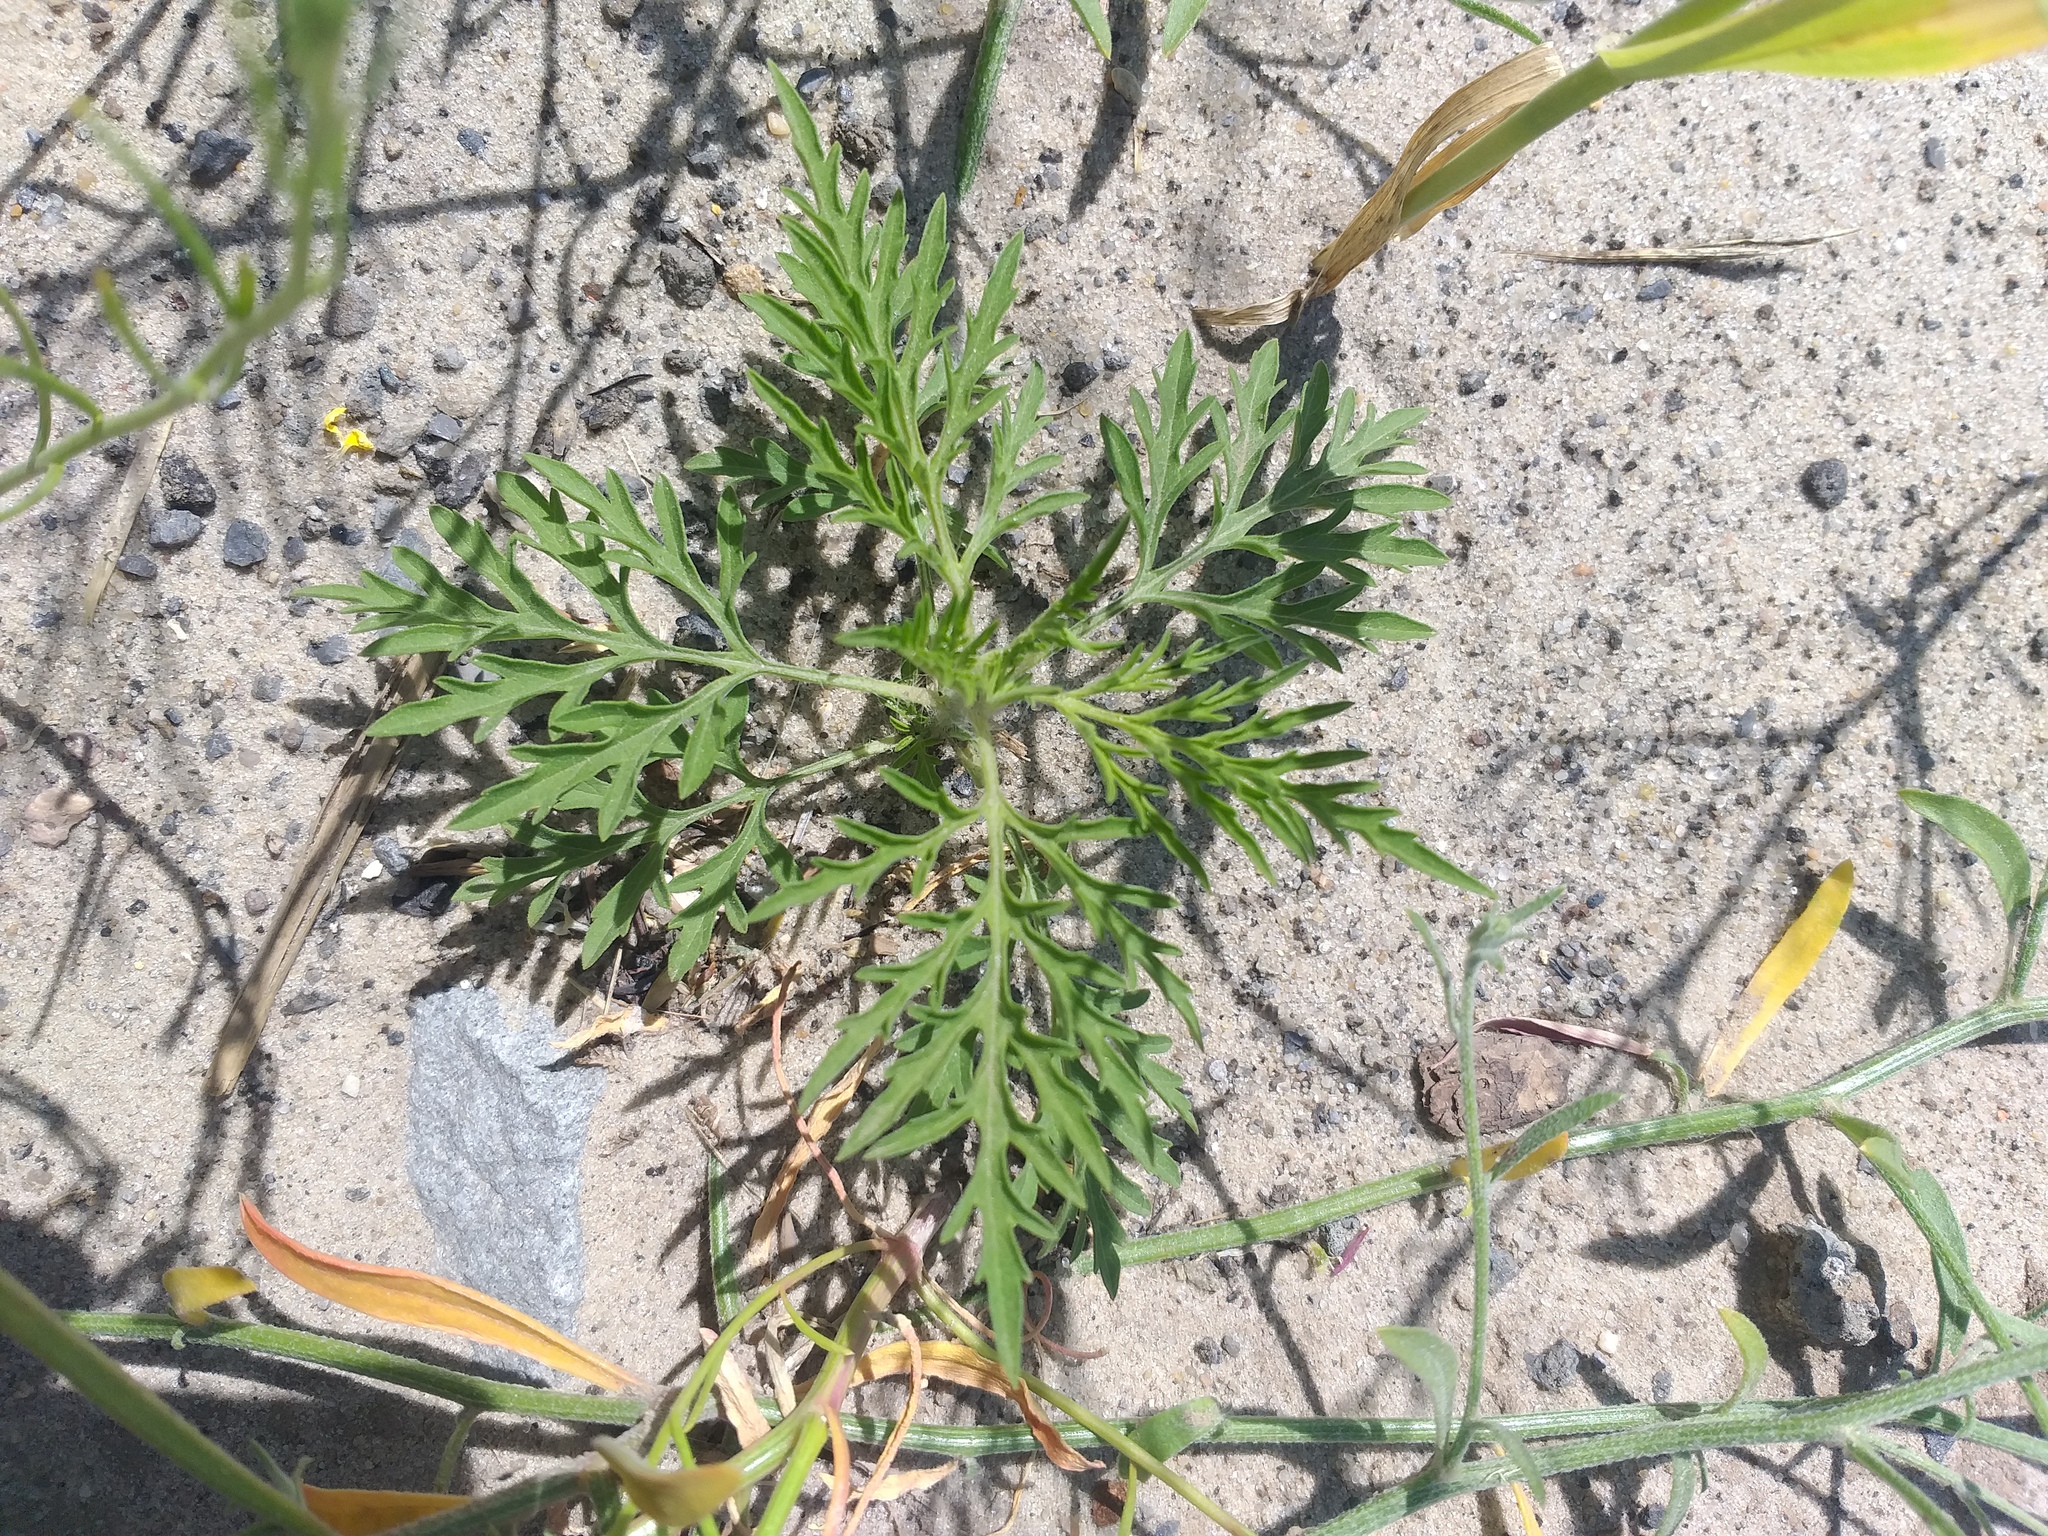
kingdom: Plantae
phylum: Tracheophyta
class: Magnoliopsida
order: Asterales
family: Asteraceae
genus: Ambrosia
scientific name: Ambrosia artemisiifolia
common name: Annual ragweed
